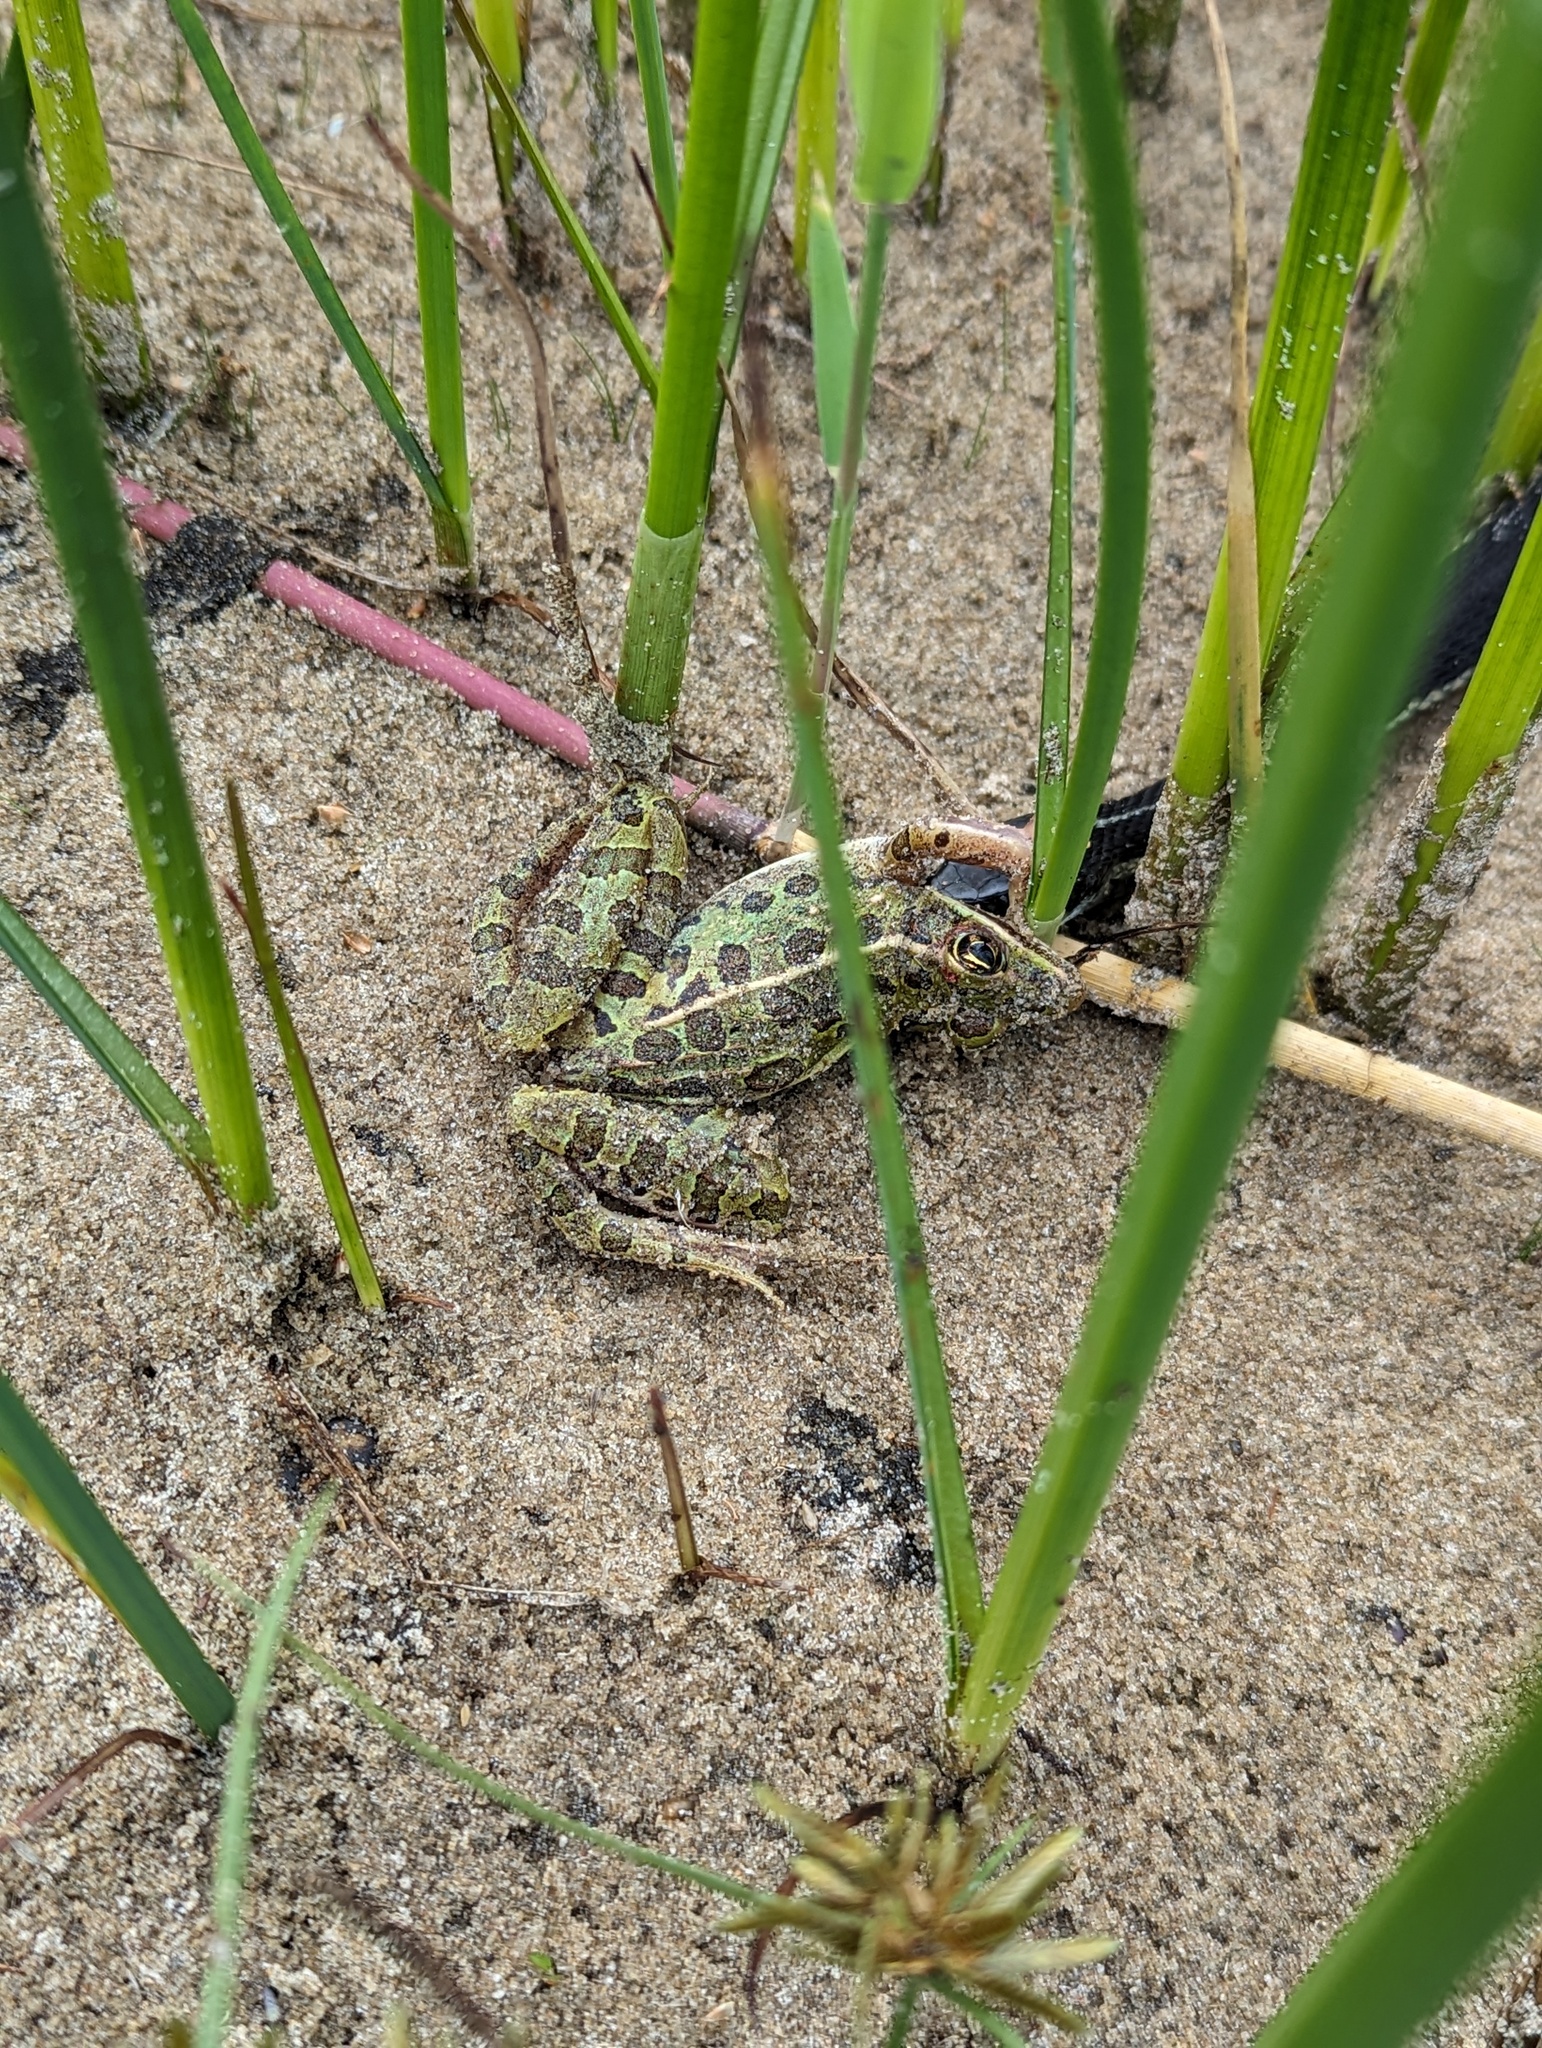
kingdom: Animalia
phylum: Chordata
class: Amphibia
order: Anura
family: Ranidae
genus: Lithobates
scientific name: Lithobates pipiens
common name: Northern leopard frog
